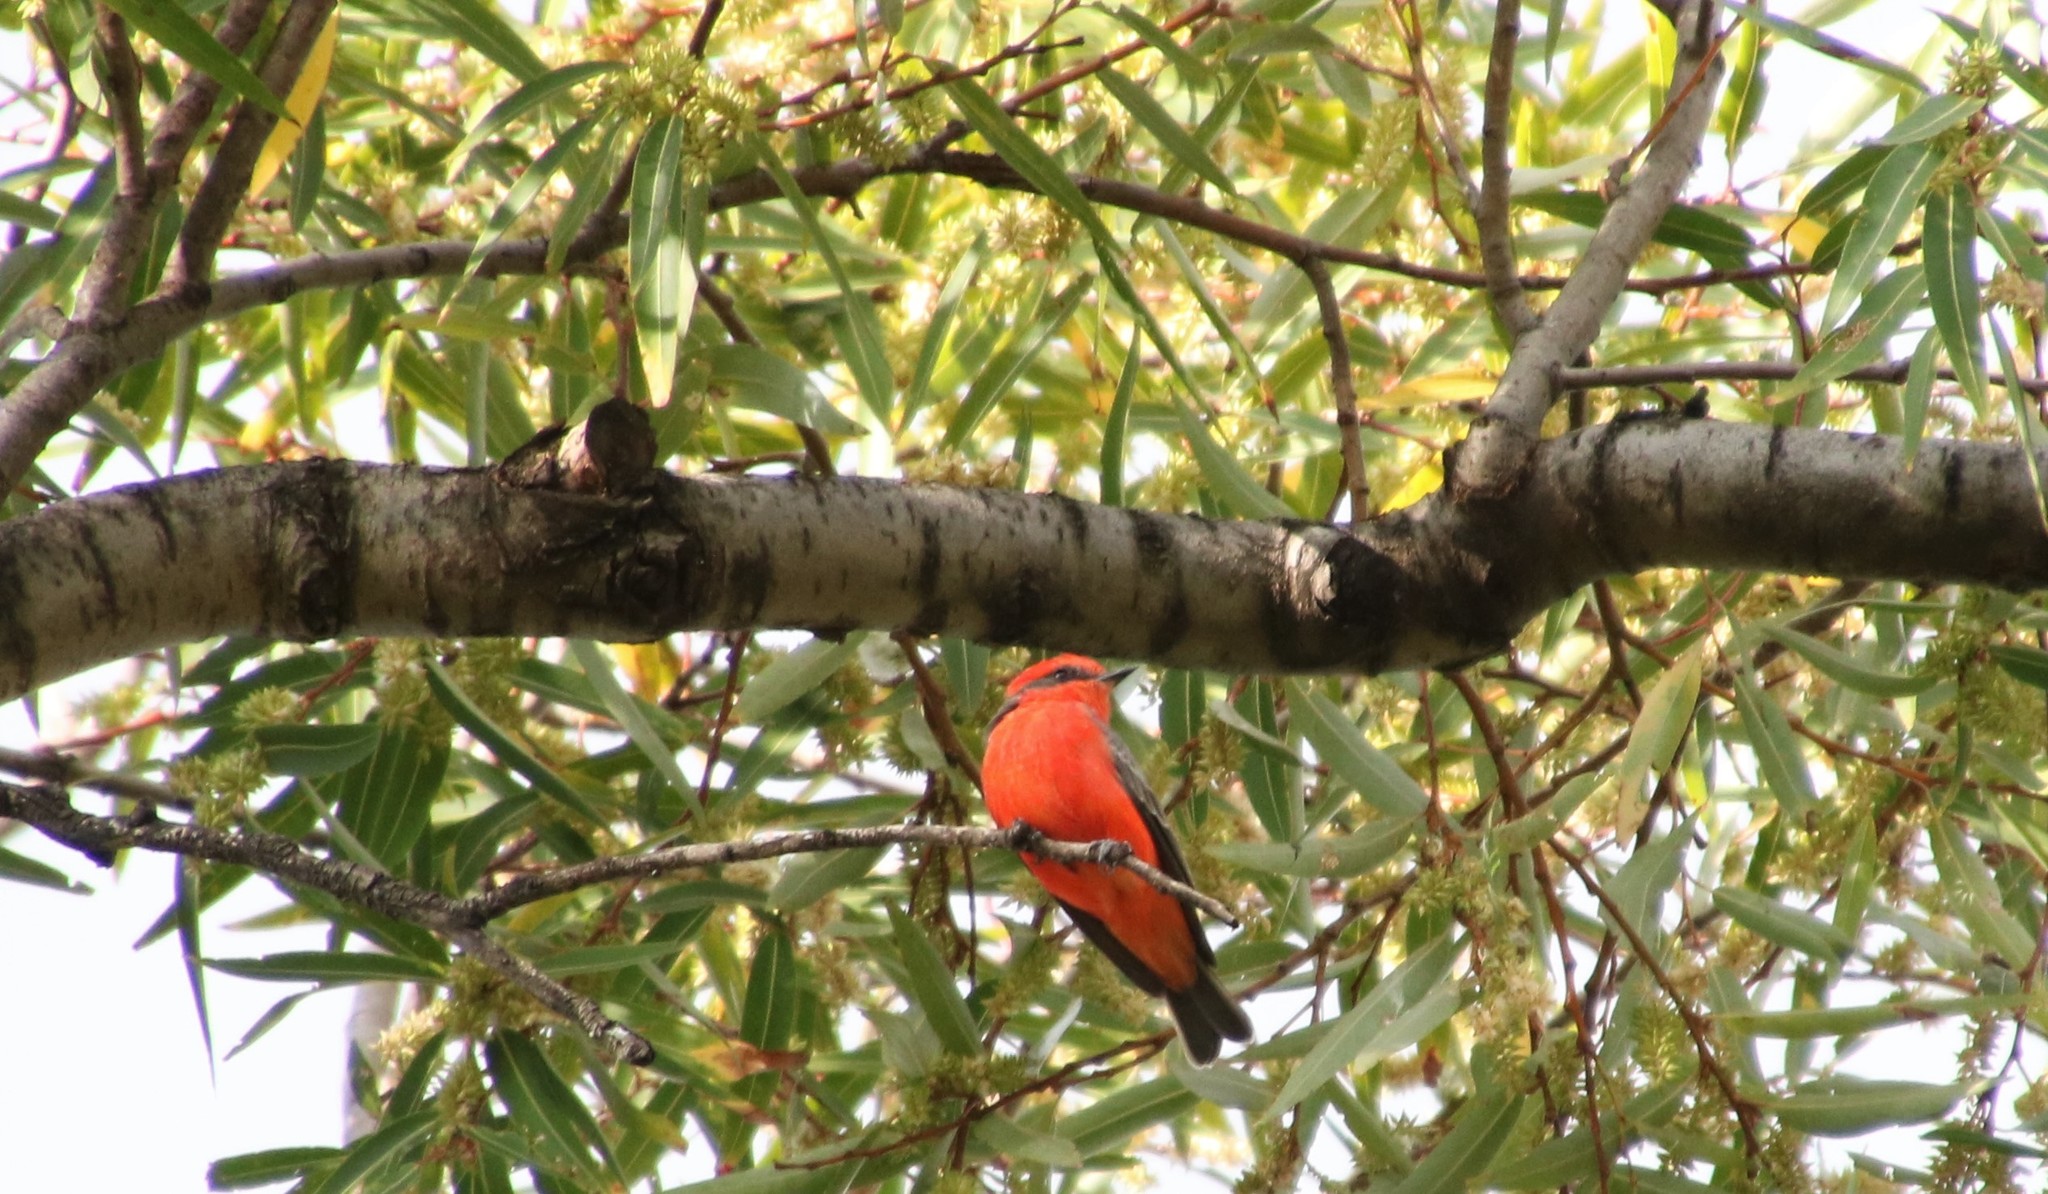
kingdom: Animalia
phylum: Chordata
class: Aves
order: Passeriformes
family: Tyrannidae
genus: Pyrocephalus
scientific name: Pyrocephalus rubinus
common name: Vermilion flycatcher
